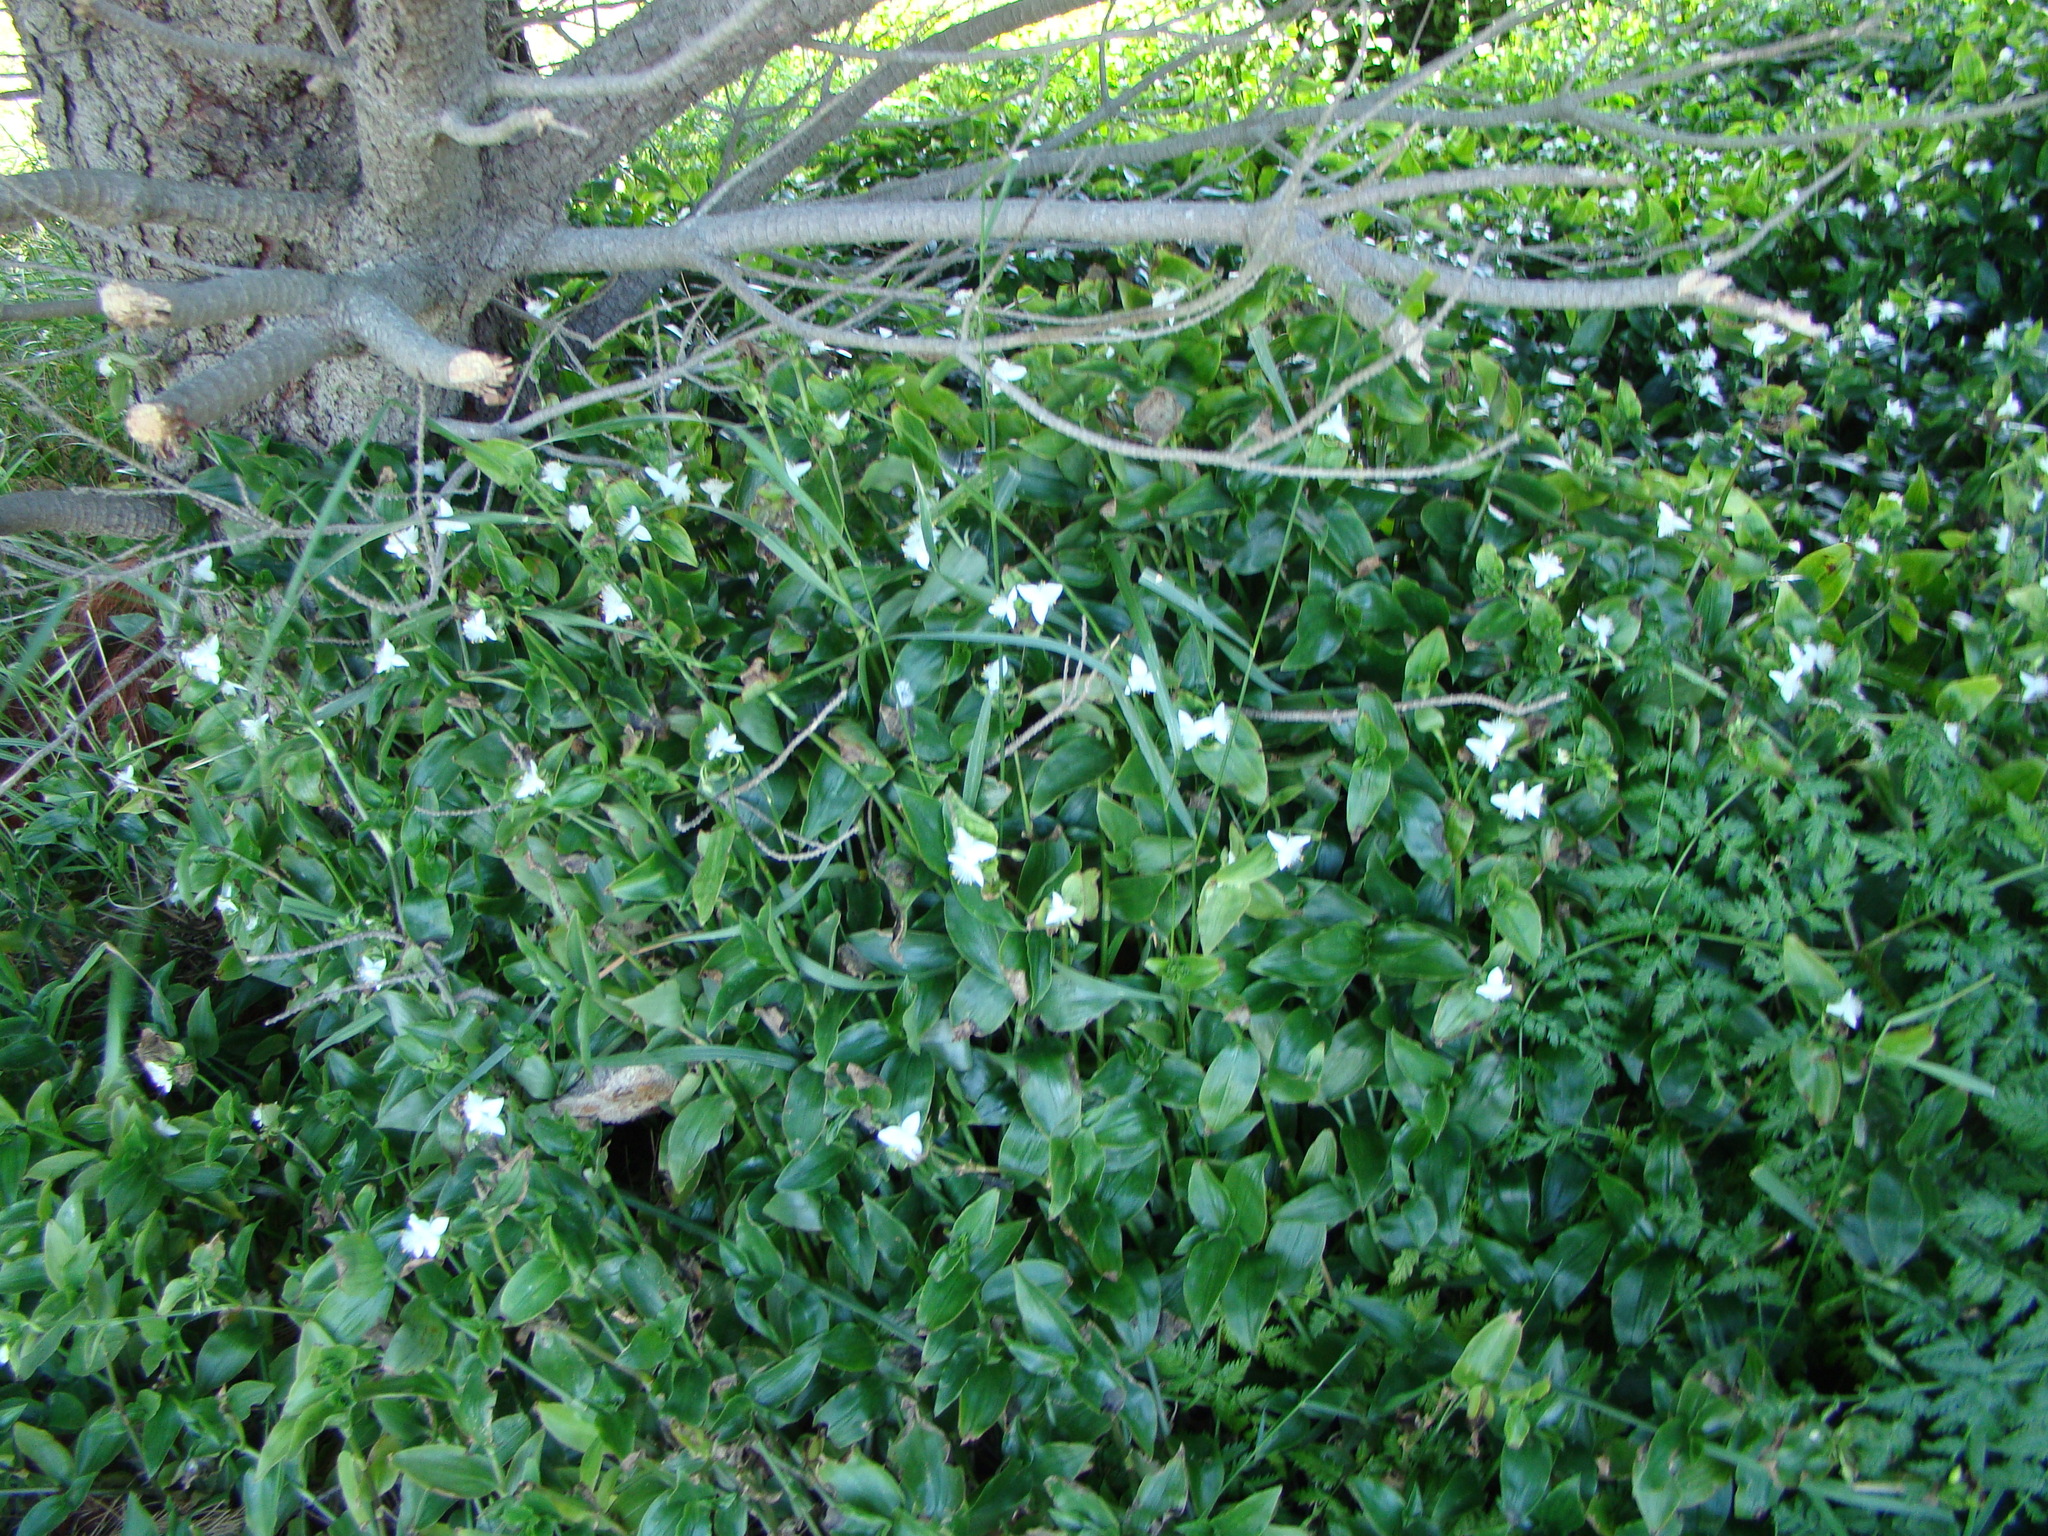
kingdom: Plantae
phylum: Tracheophyta
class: Liliopsida
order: Commelinales
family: Commelinaceae
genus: Tradescantia
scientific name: Tradescantia fluminensis
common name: Wandering-jew
